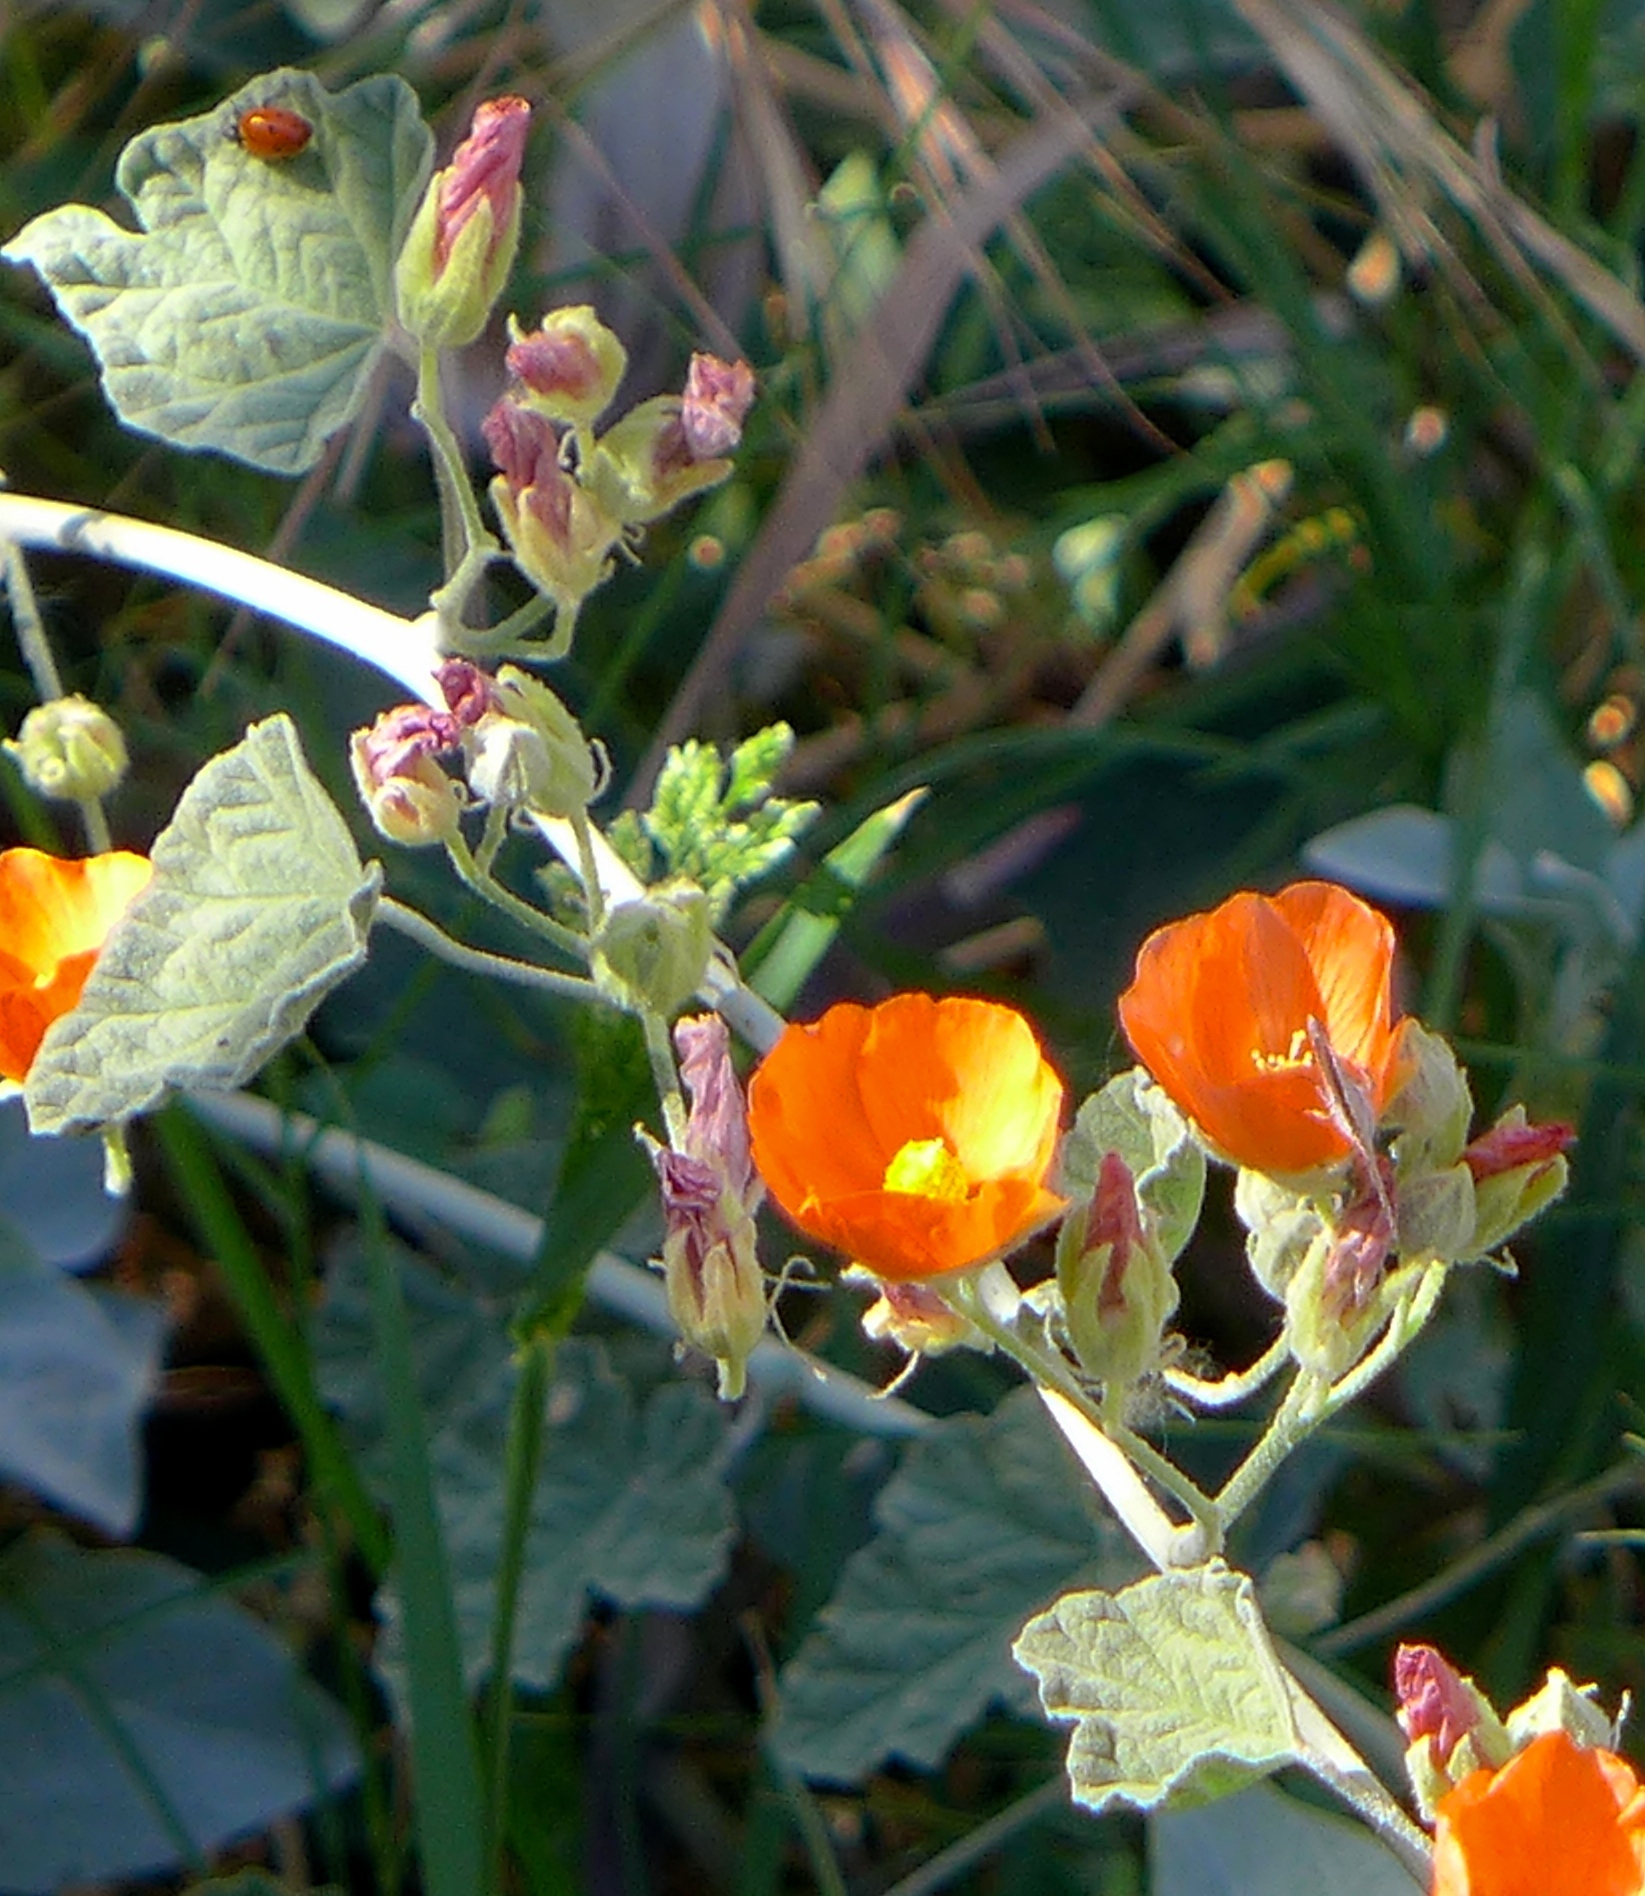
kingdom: Plantae
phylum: Tracheophyta
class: Magnoliopsida
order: Malvales
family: Malvaceae
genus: Sphaeralcea
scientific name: Sphaeralcea ambigua
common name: Apricot globe-mallow
